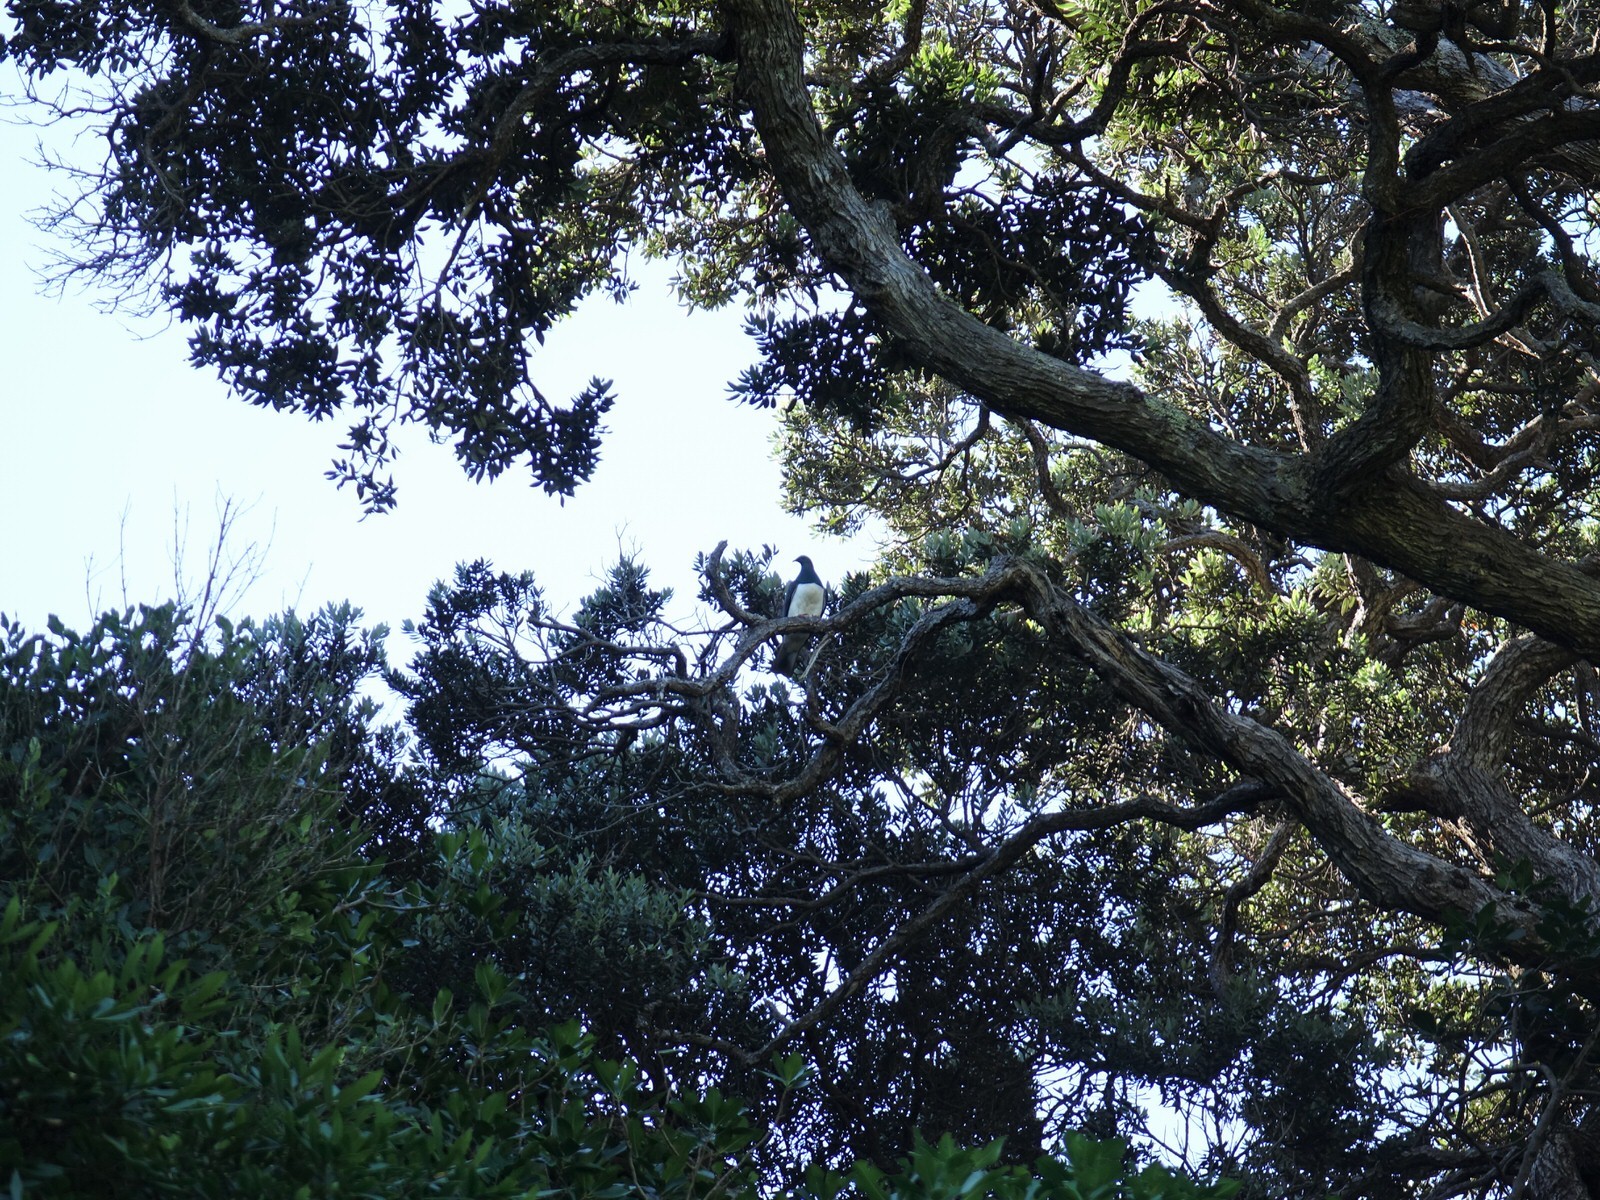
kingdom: Animalia
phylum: Chordata
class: Aves
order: Columbiformes
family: Columbidae
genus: Hemiphaga
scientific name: Hemiphaga novaeseelandiae
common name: New zealand pigeon
